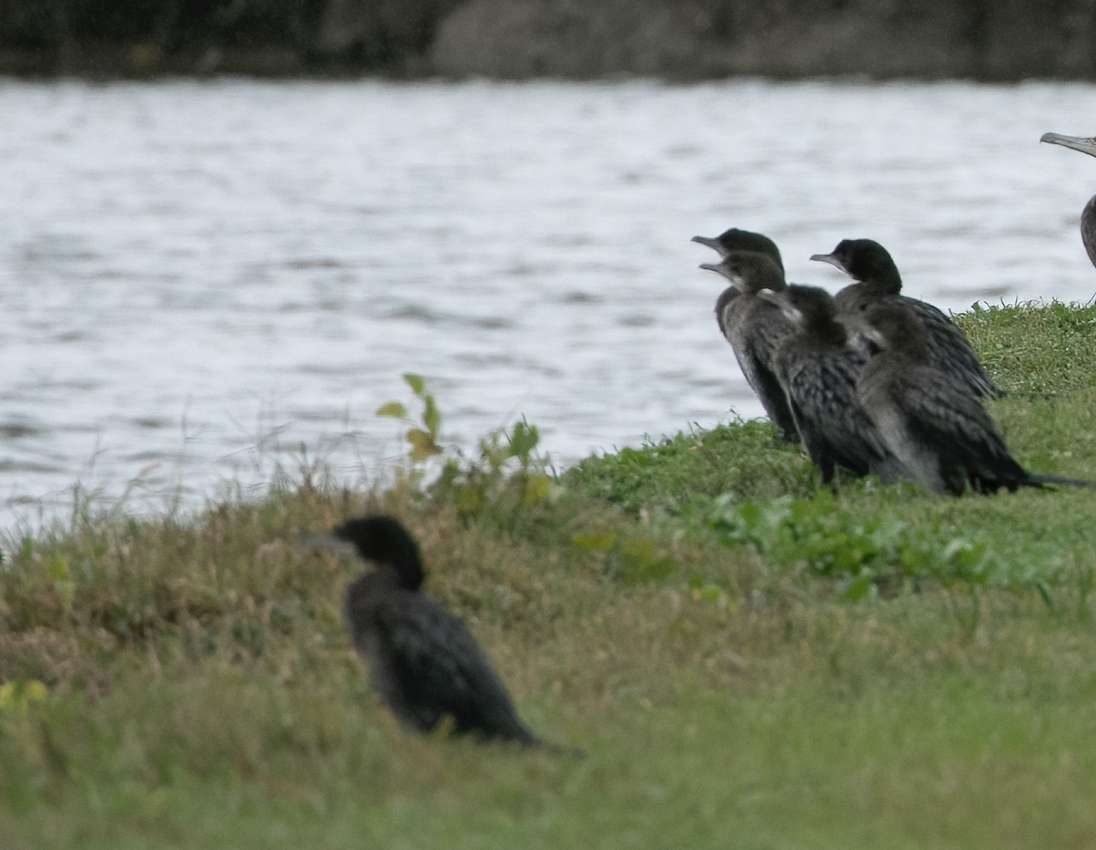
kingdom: Animalia
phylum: Chordata
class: Aves
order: Suliformes
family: Phalacrocoracidae
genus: Microcarbo
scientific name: Microcarbo pygmaeus
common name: Pygmy cormorant
